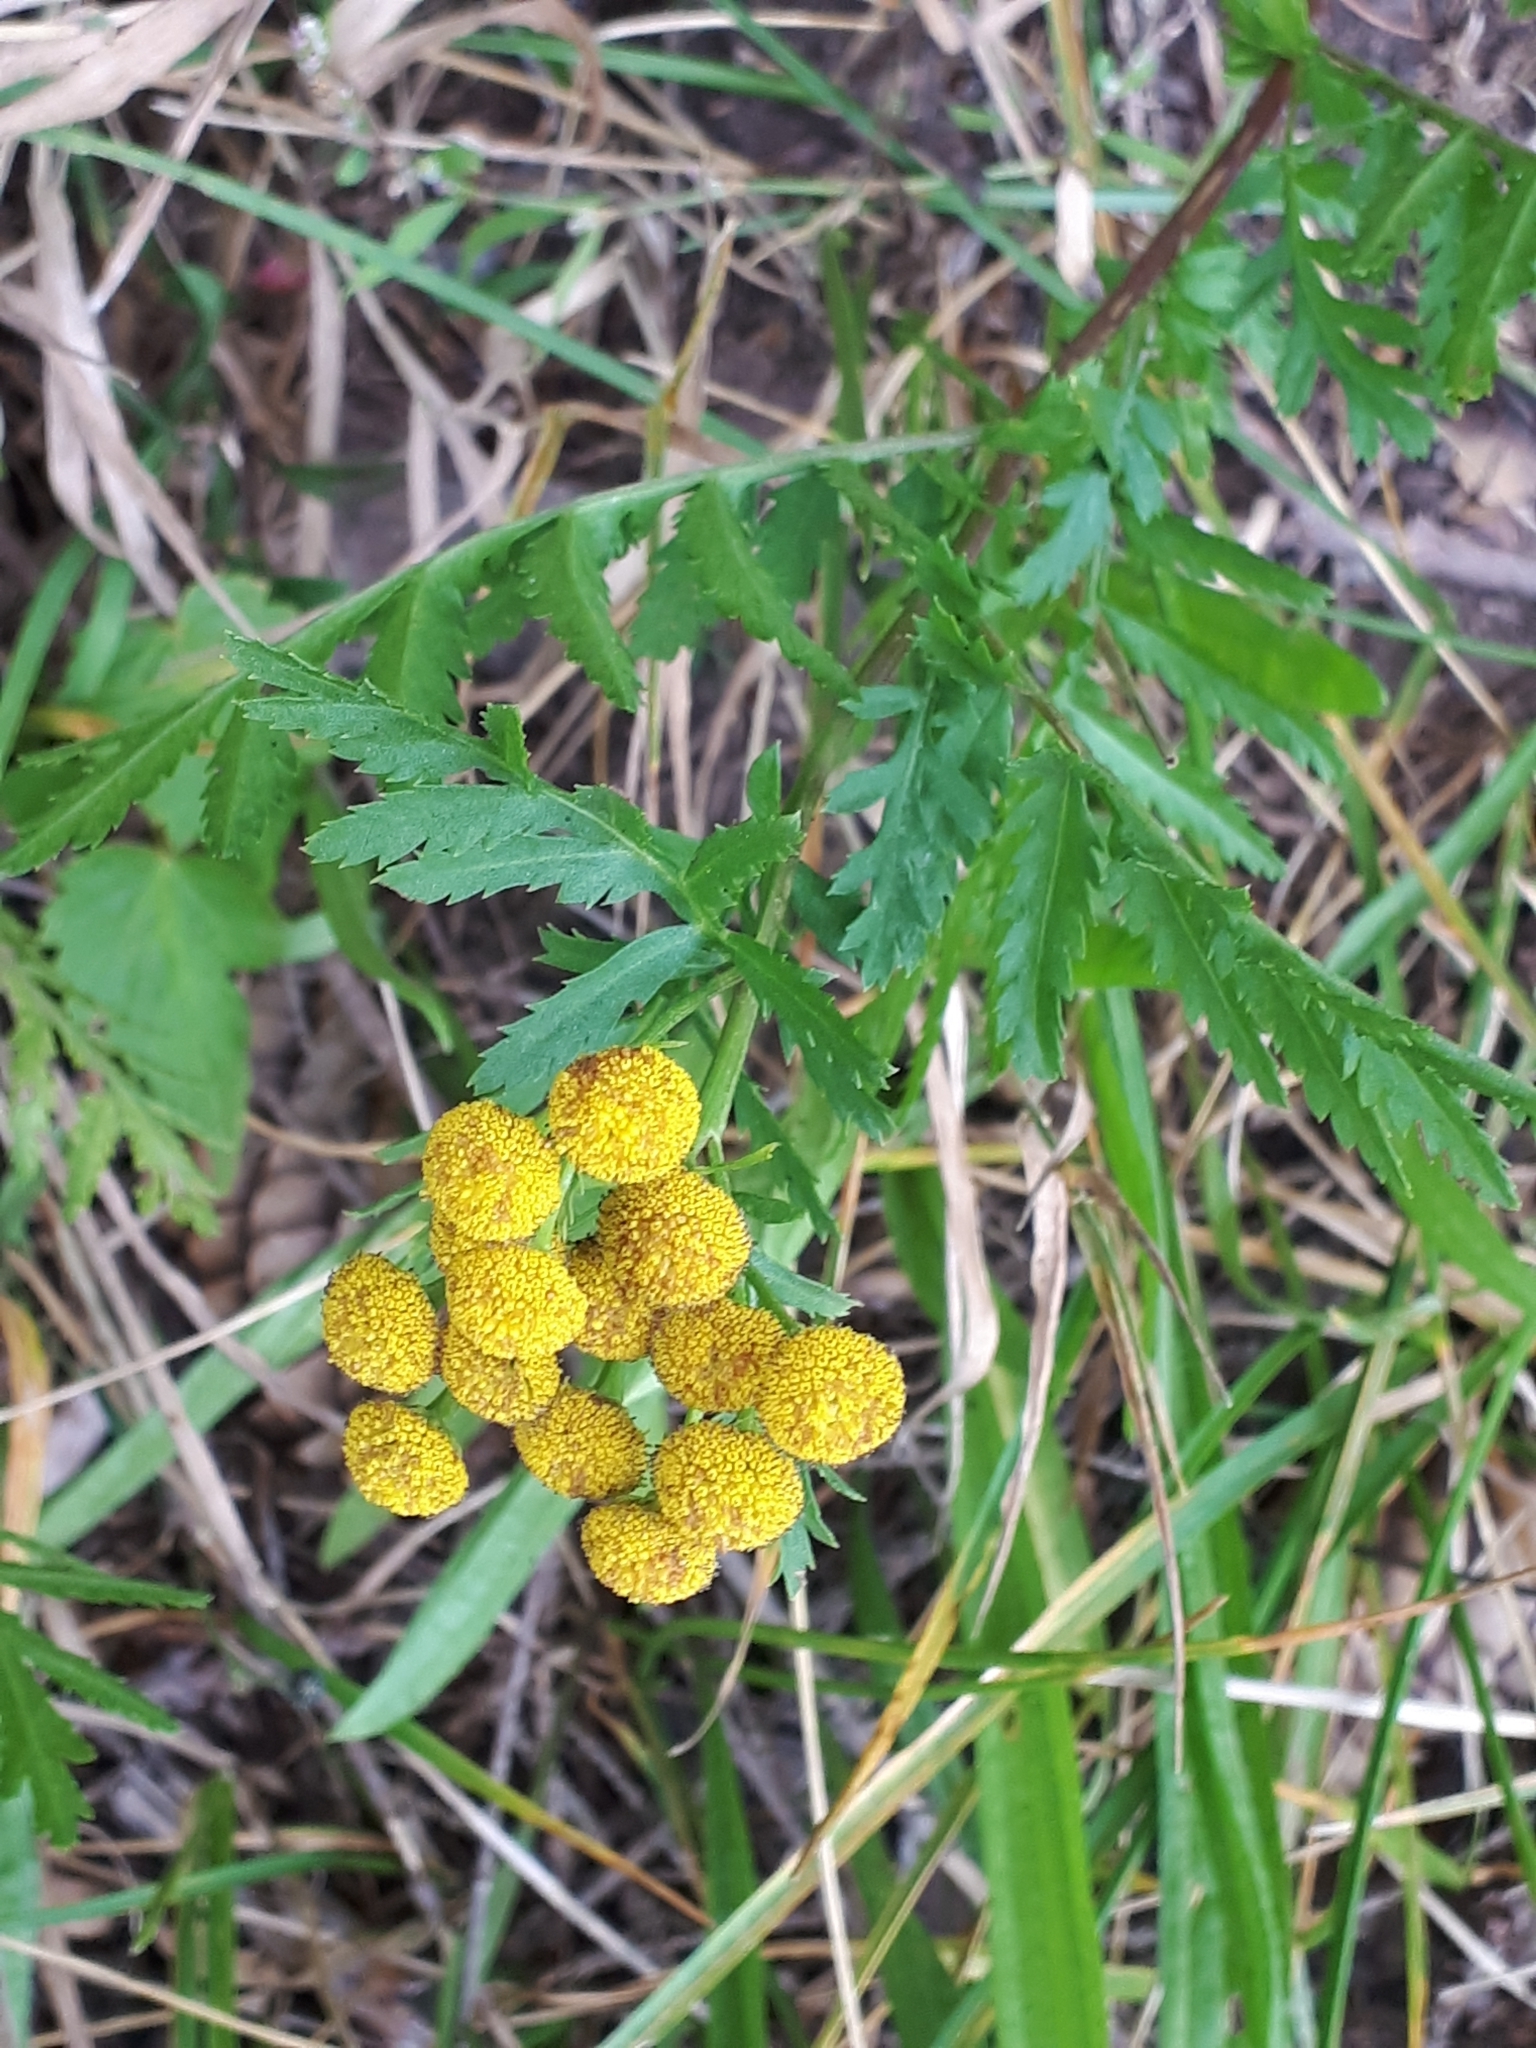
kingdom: Plantae
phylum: Tracheophyta
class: Magnoliopsida
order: Asterales
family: Asteraceae
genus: Tanacetum
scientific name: Tanacetum vulgare
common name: Common tansy
